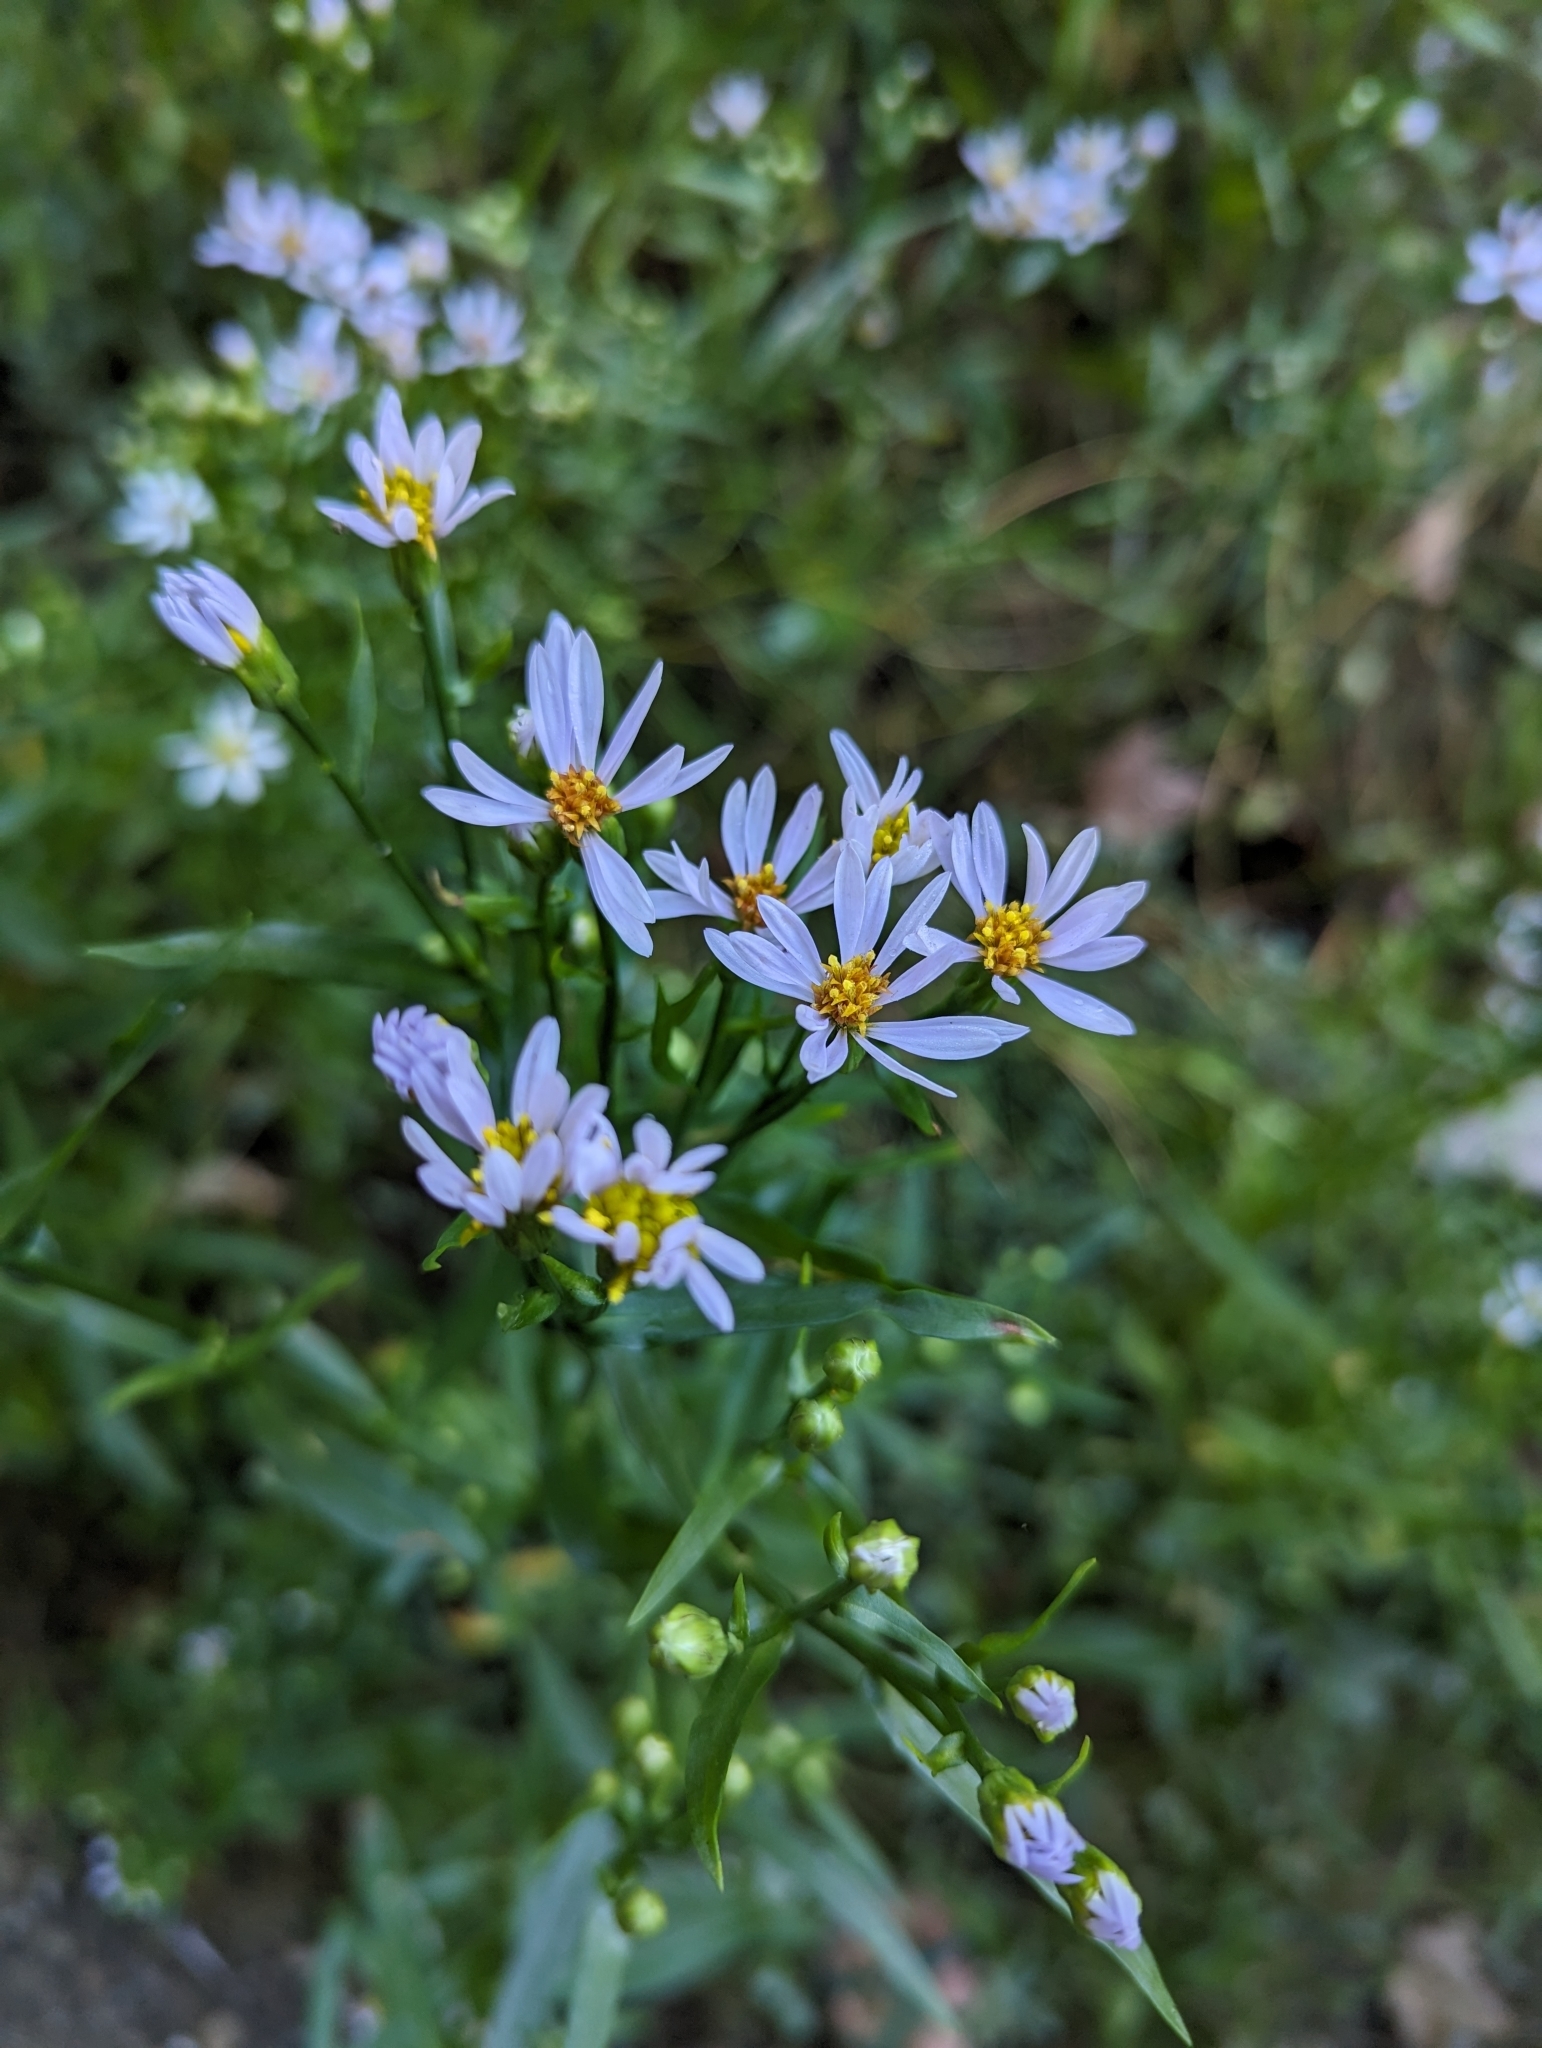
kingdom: Plantae
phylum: Tracheophyta
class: Magnoliopsida
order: Asterales
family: Asteraceae
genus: Tripolium
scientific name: Tripolium pannonicum
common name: Sea aster
